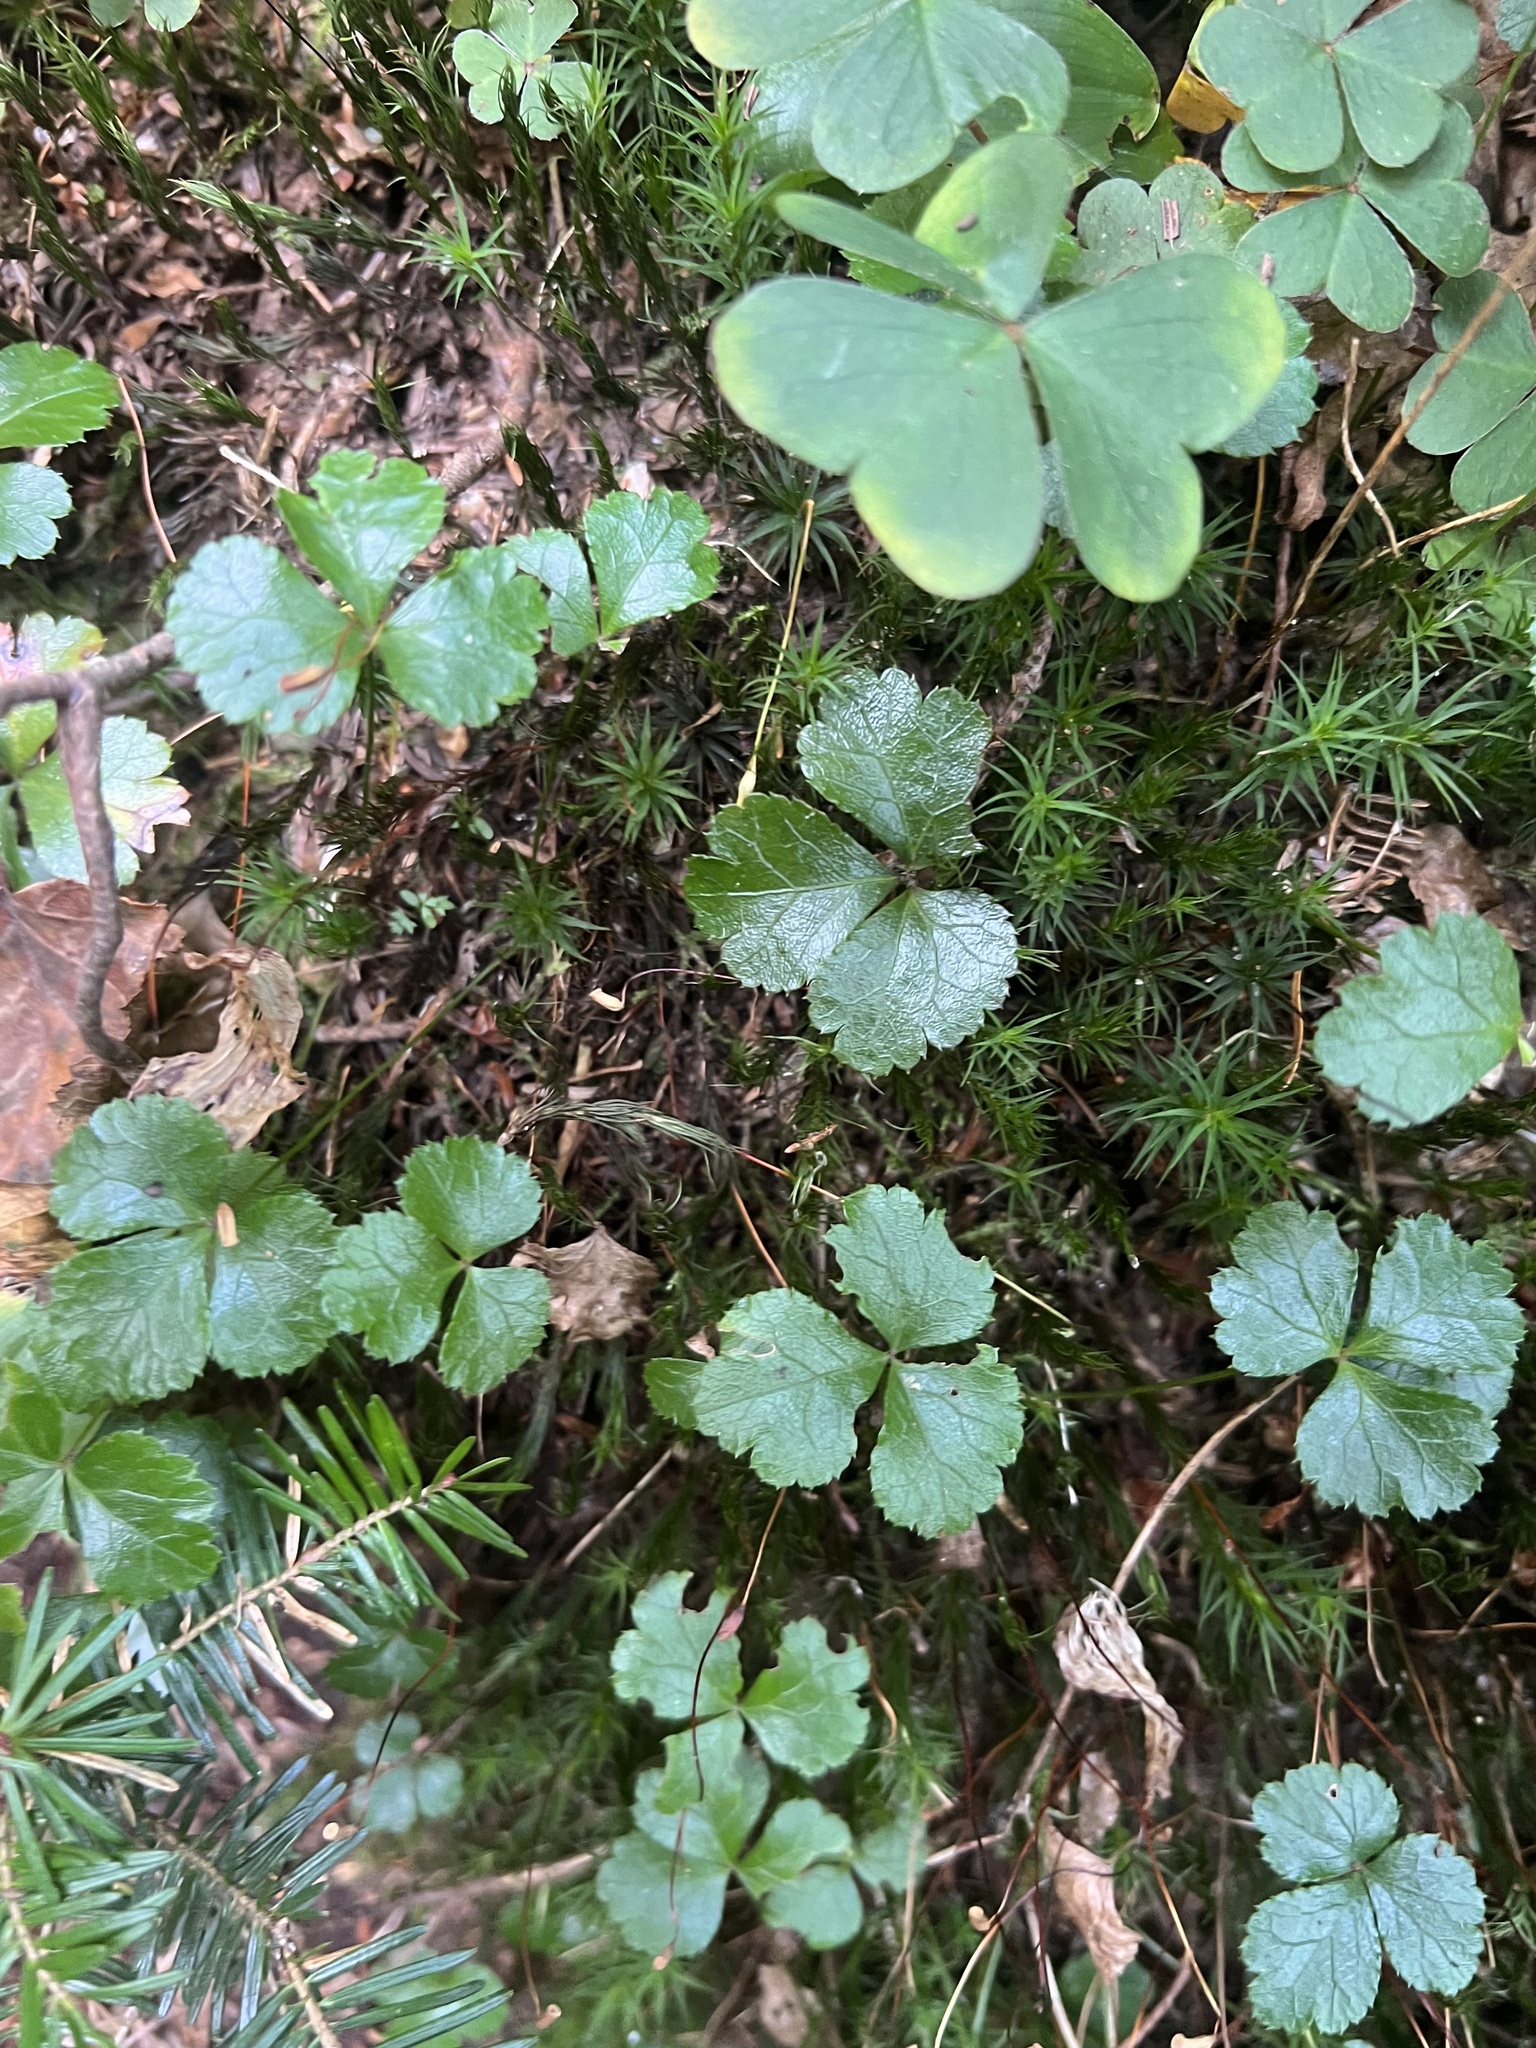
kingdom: Plantae
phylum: Tracheophyta
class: Magnoliopsida
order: Ranunculales
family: Ranunculaceae
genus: Coptis
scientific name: Coptis trifolia
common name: Canker-root
